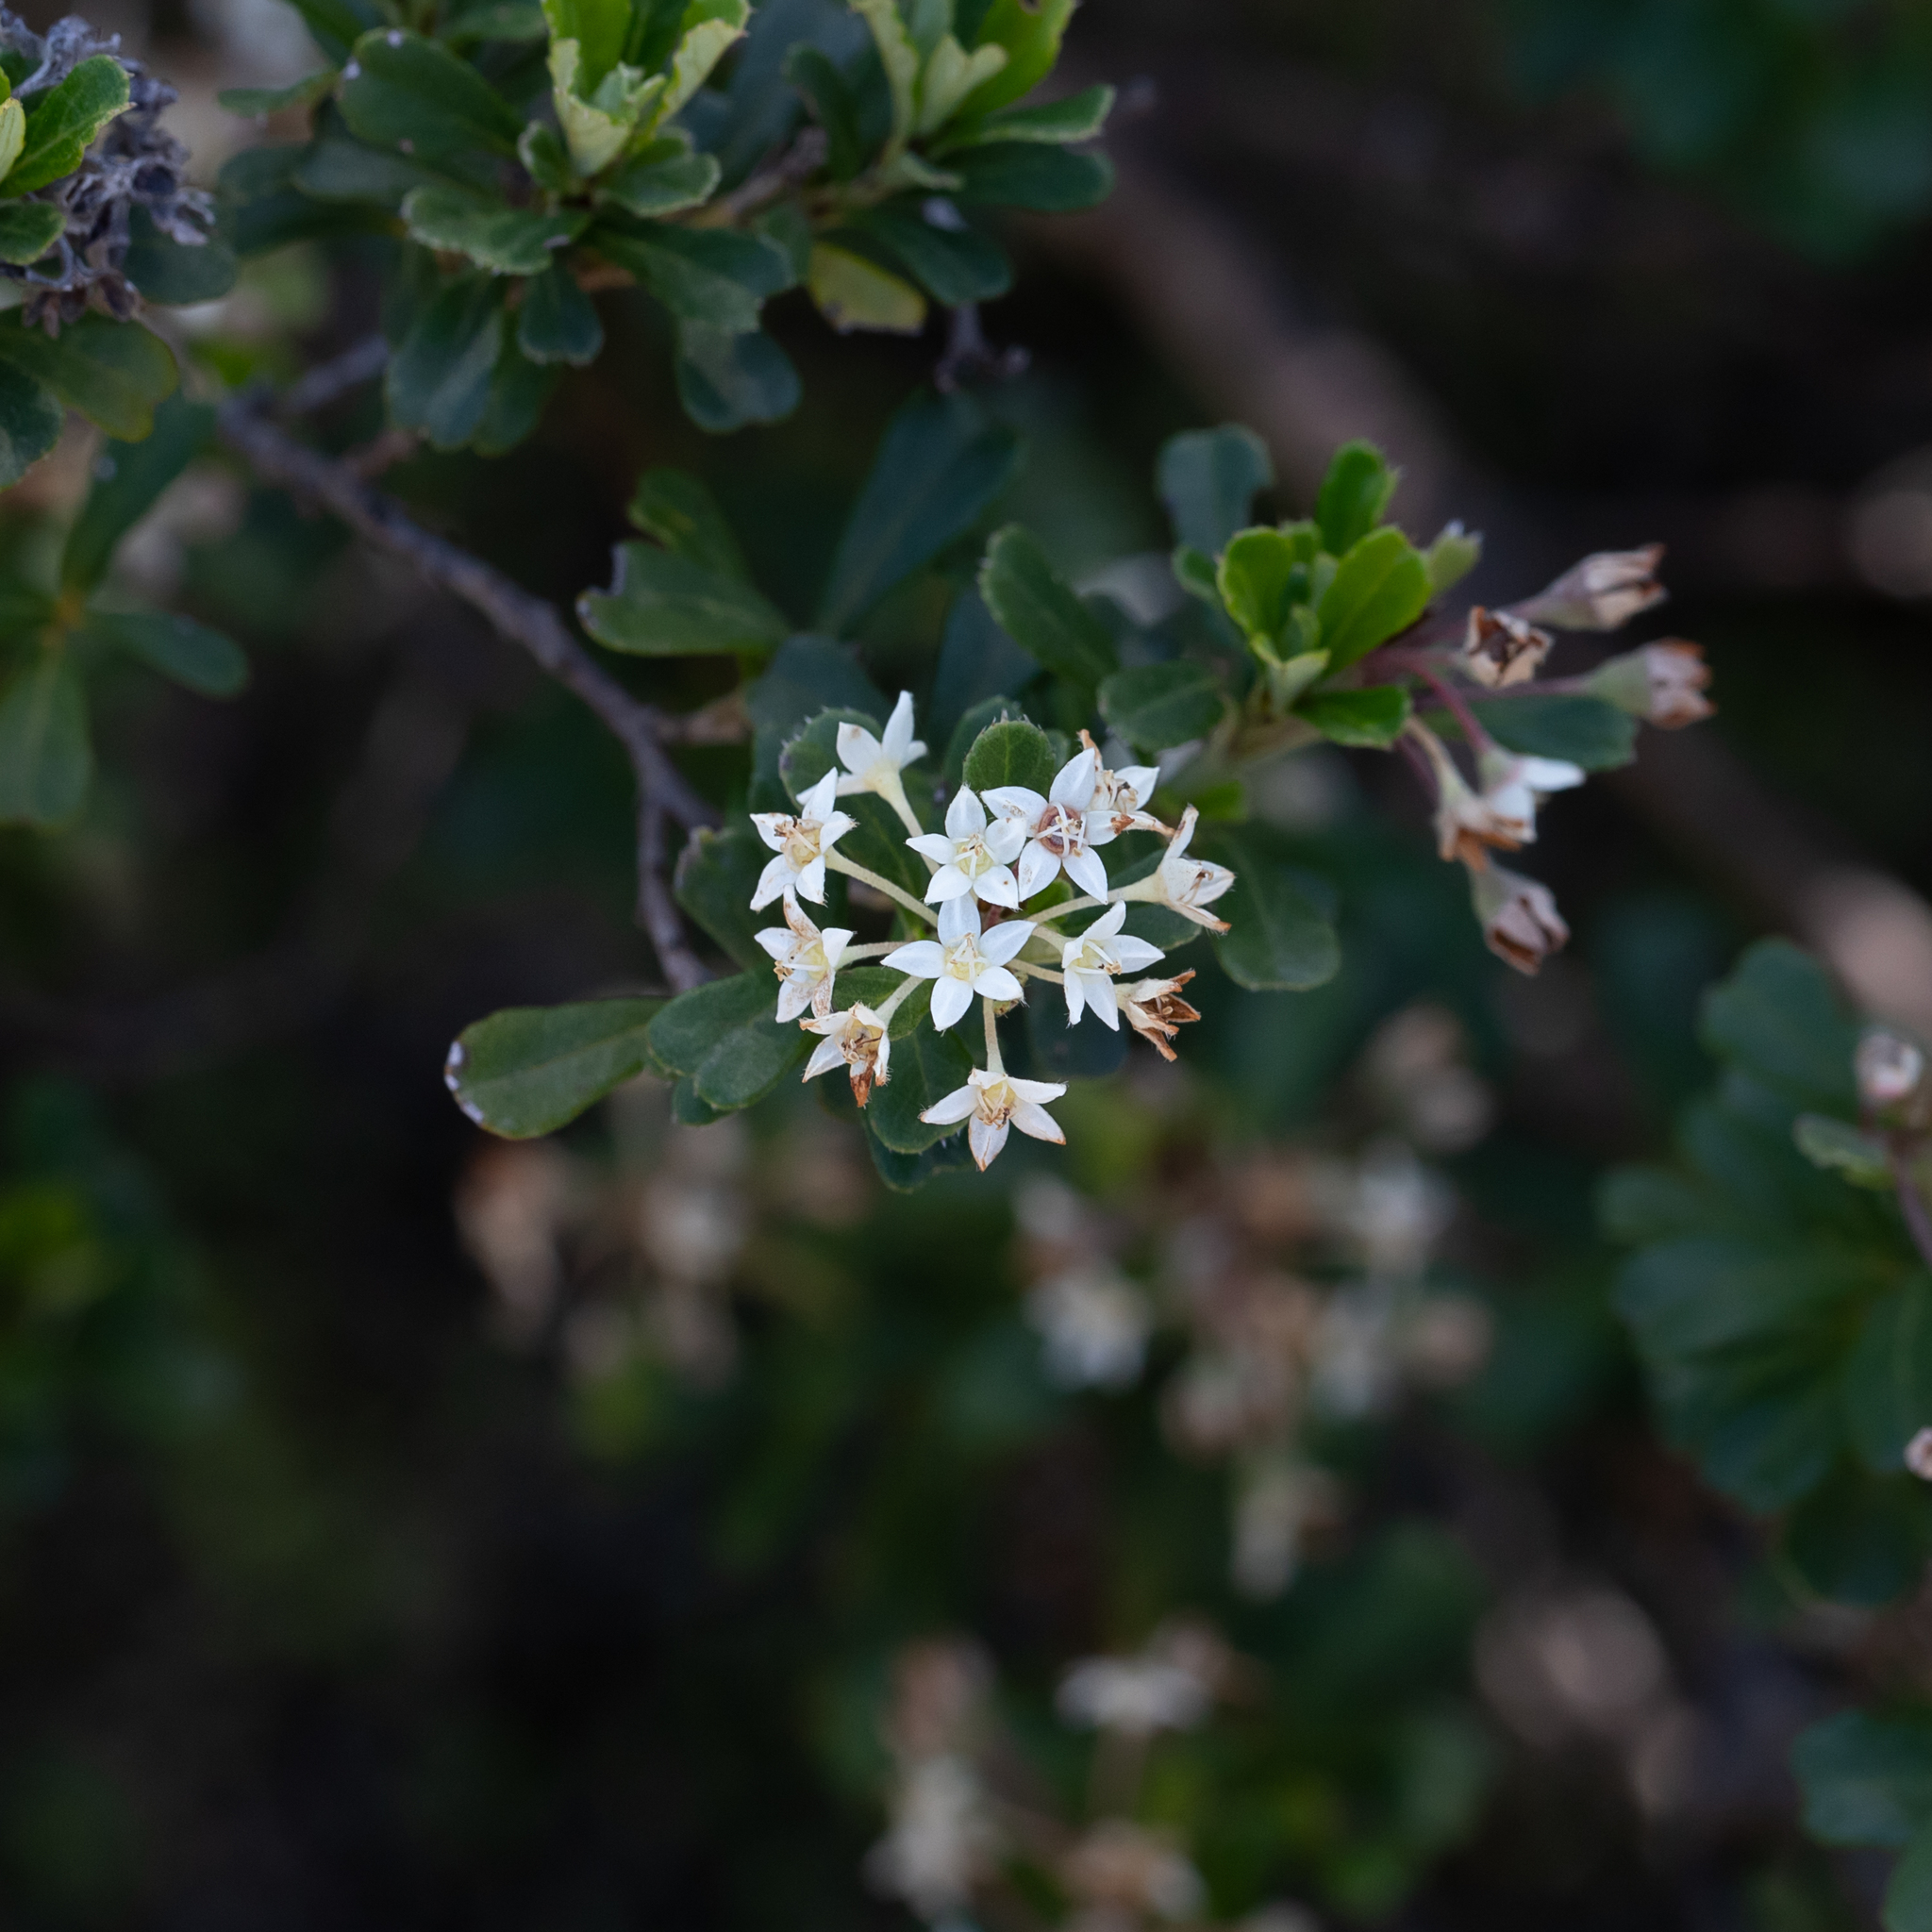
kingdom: Plantae
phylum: Tracheophyta
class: Magnoliopsida
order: Rosales
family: Rhamnaceae
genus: Pomaderris
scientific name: Pomaderris obcordata
